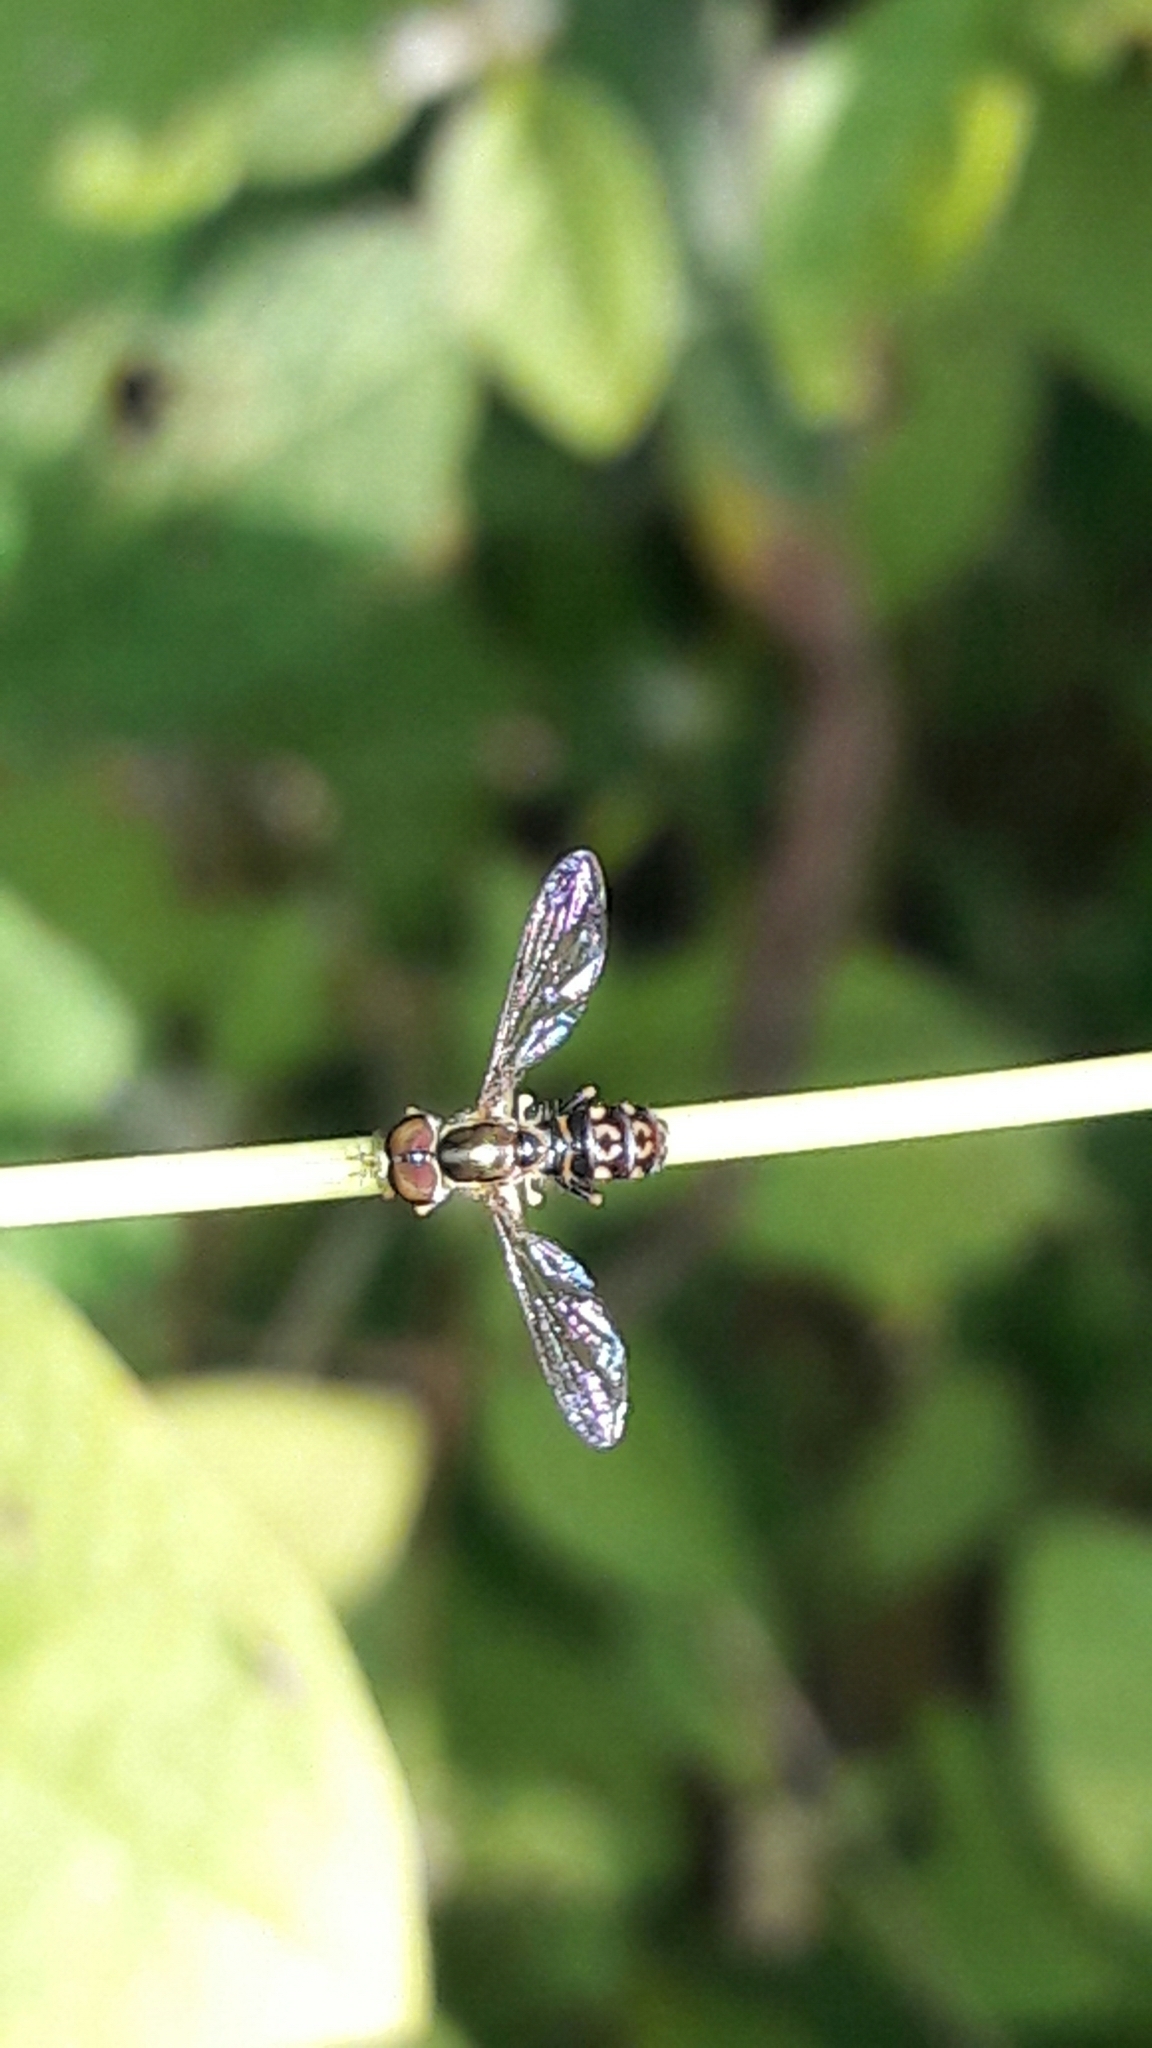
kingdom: Animalia
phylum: Arthropoda
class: Insecta
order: Diptera
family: Syrphidae
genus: Toxomerus
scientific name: Toxomerus virgulatus
